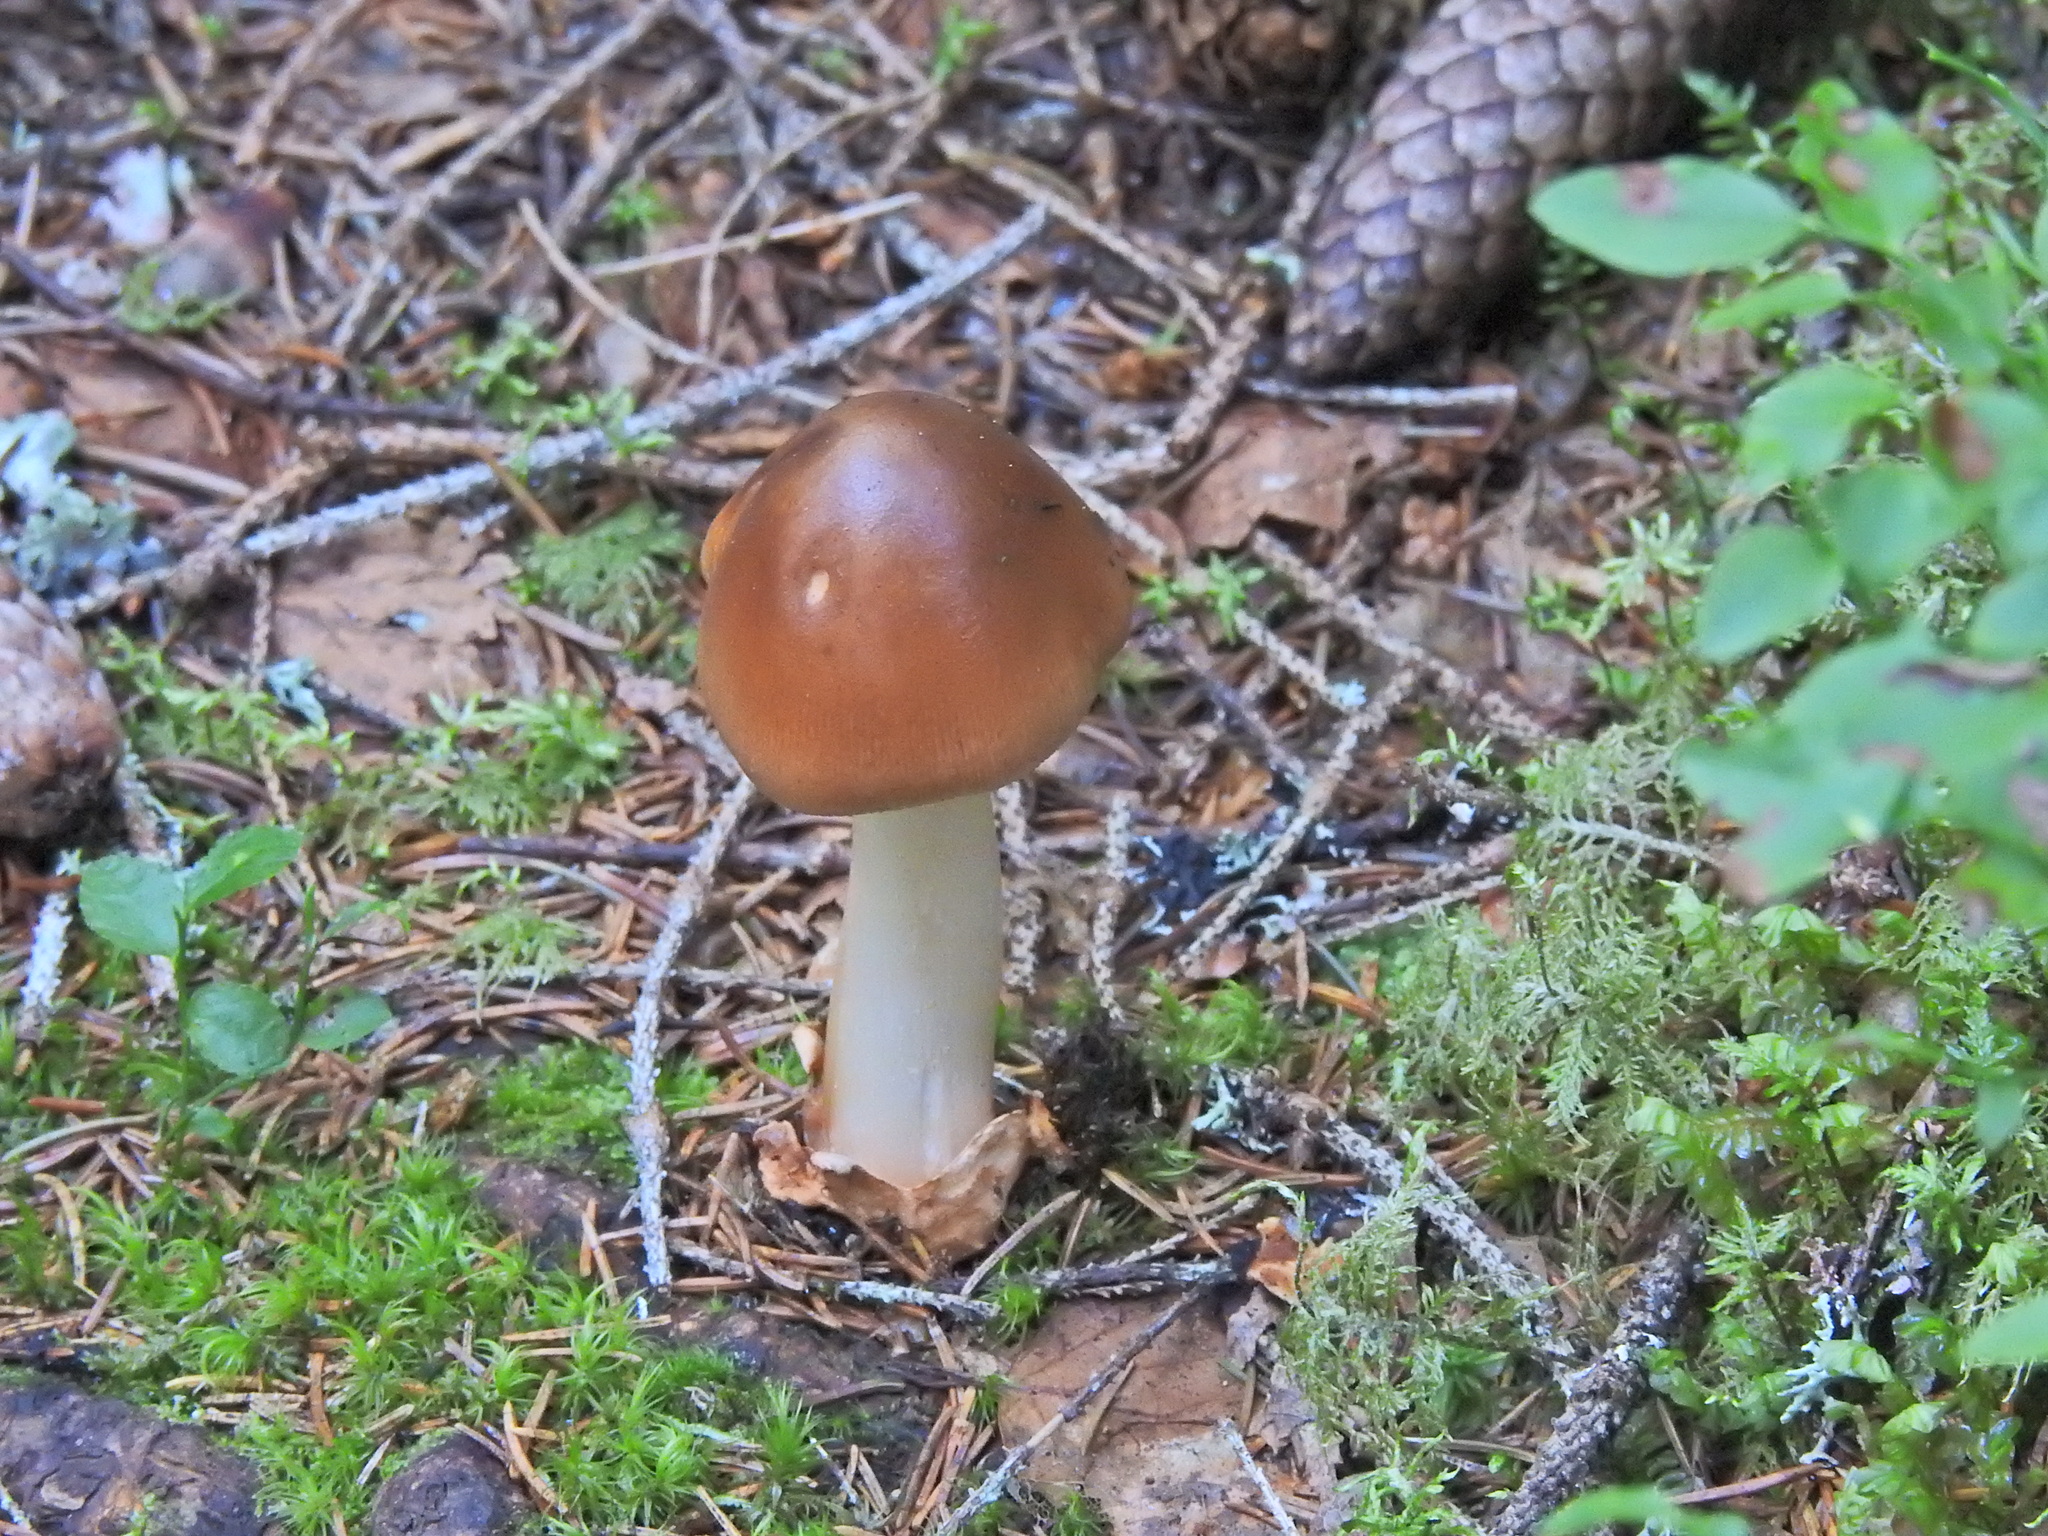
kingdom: Fungi
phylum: Basidiomycota
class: Agaricomycetes
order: Agaricales
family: Amanitaceae
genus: Amanita
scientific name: Amanita fulva
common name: Tawny grisette
